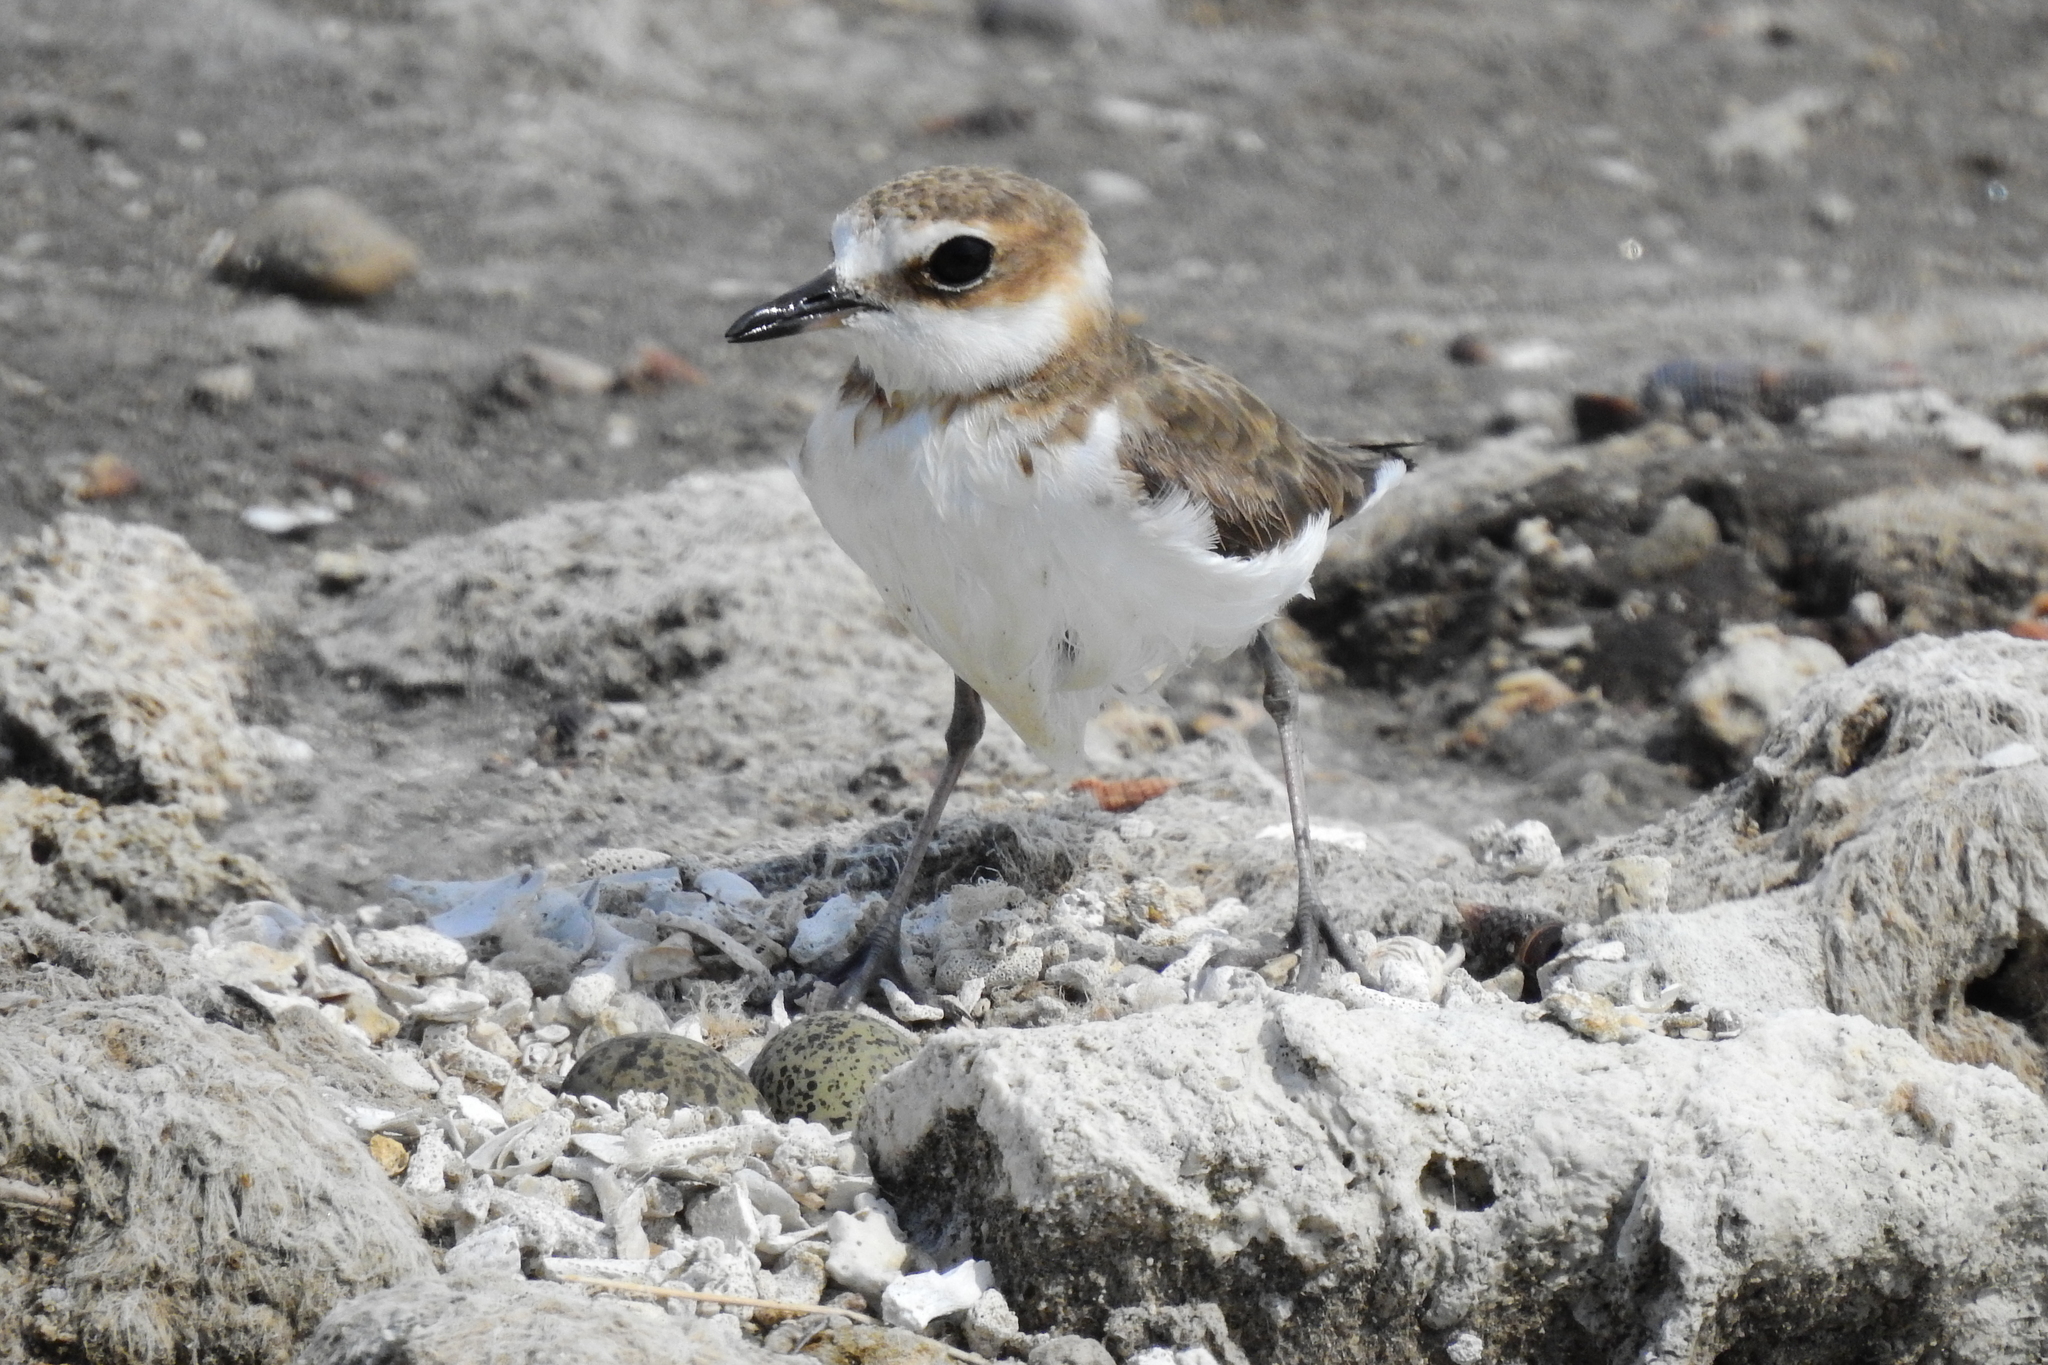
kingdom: Animalia
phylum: Chordata
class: Aves
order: Charadriiformes
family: Charadriidae
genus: Anarhynchus
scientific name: Anarhynchus
